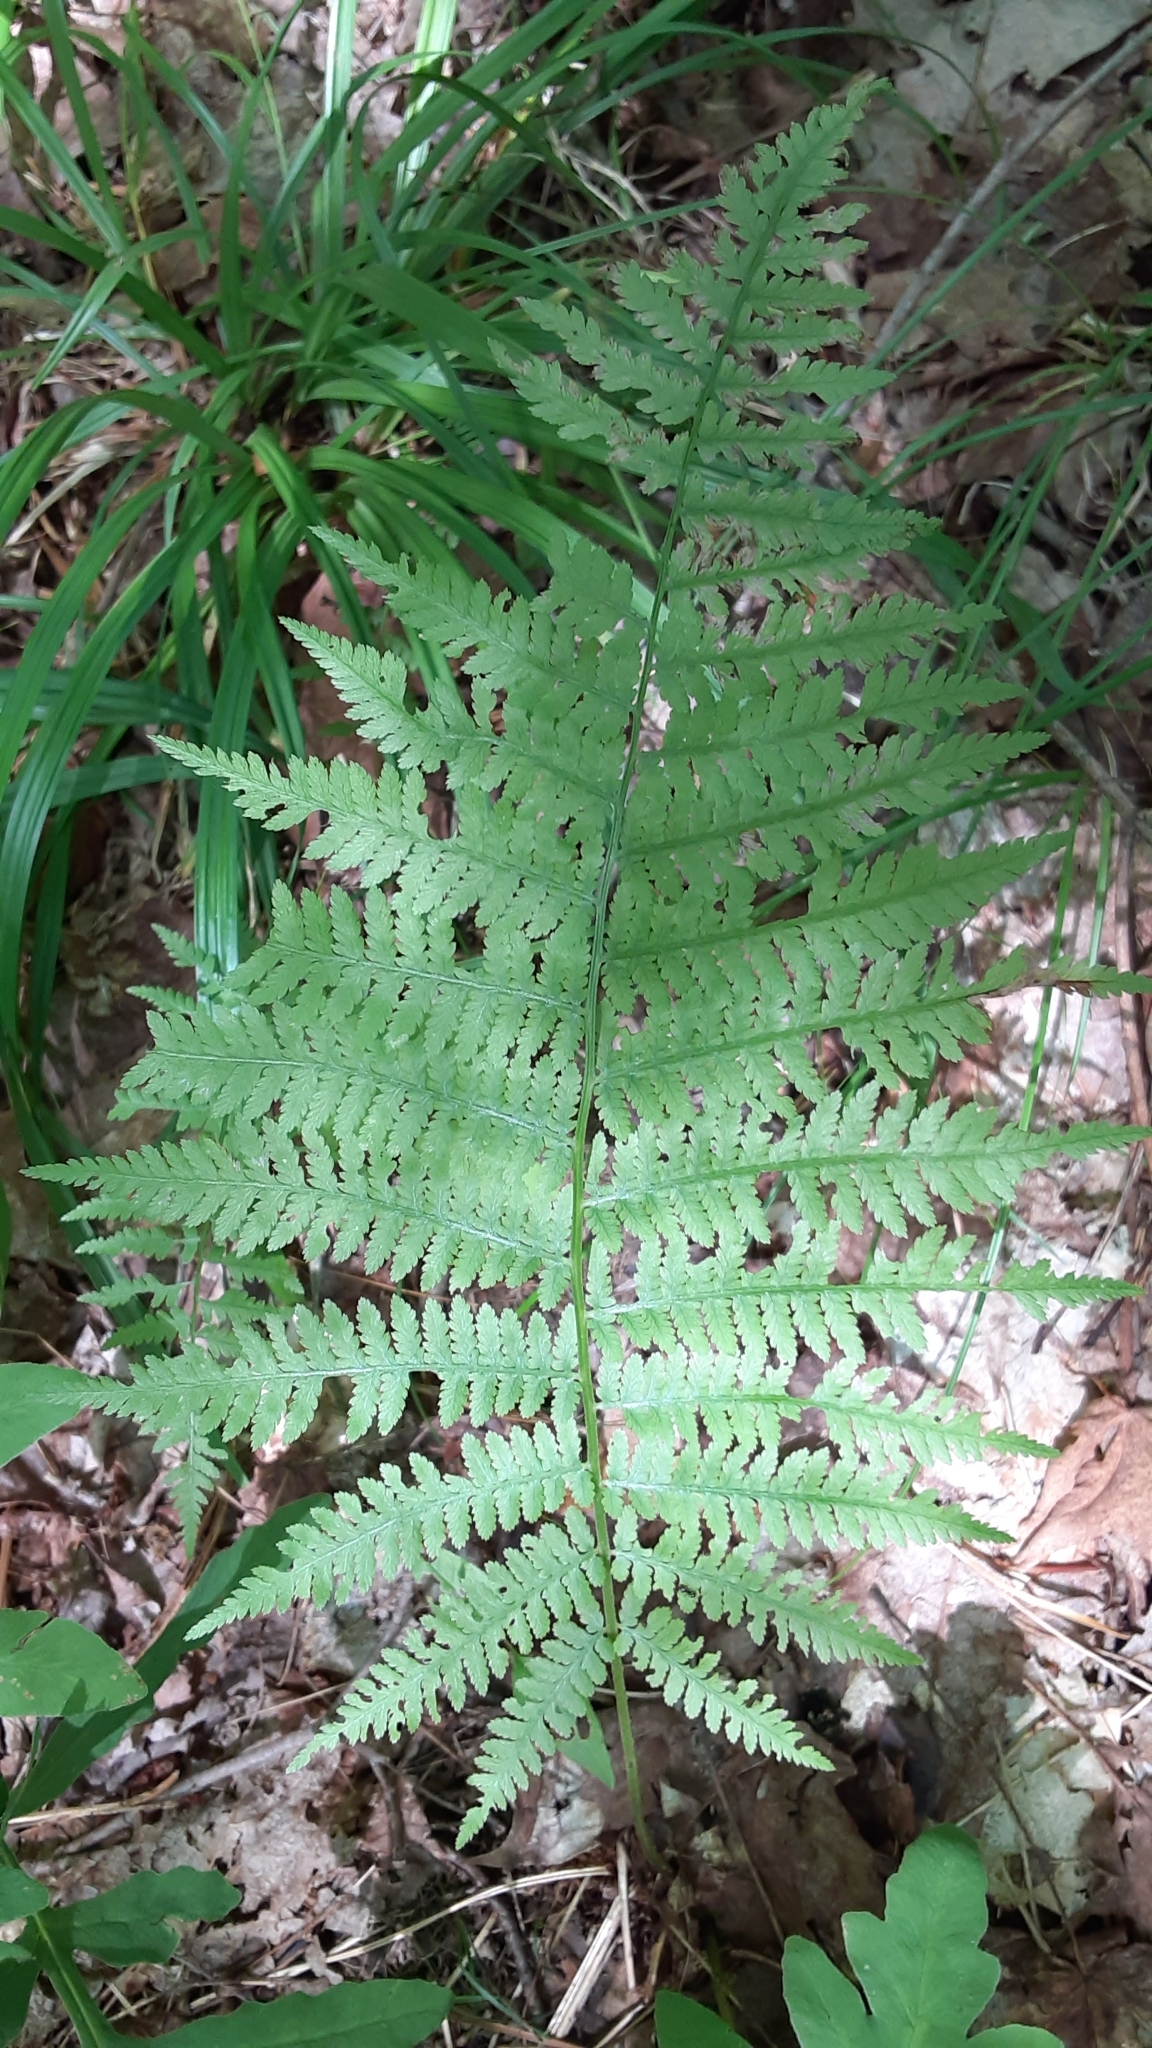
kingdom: Plantae
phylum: Tracheophyta
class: Polypodiopsida
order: Polypodiales
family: Athyriaceae
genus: Athyrium
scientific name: Athyrium angustum
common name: Northern lady fern
